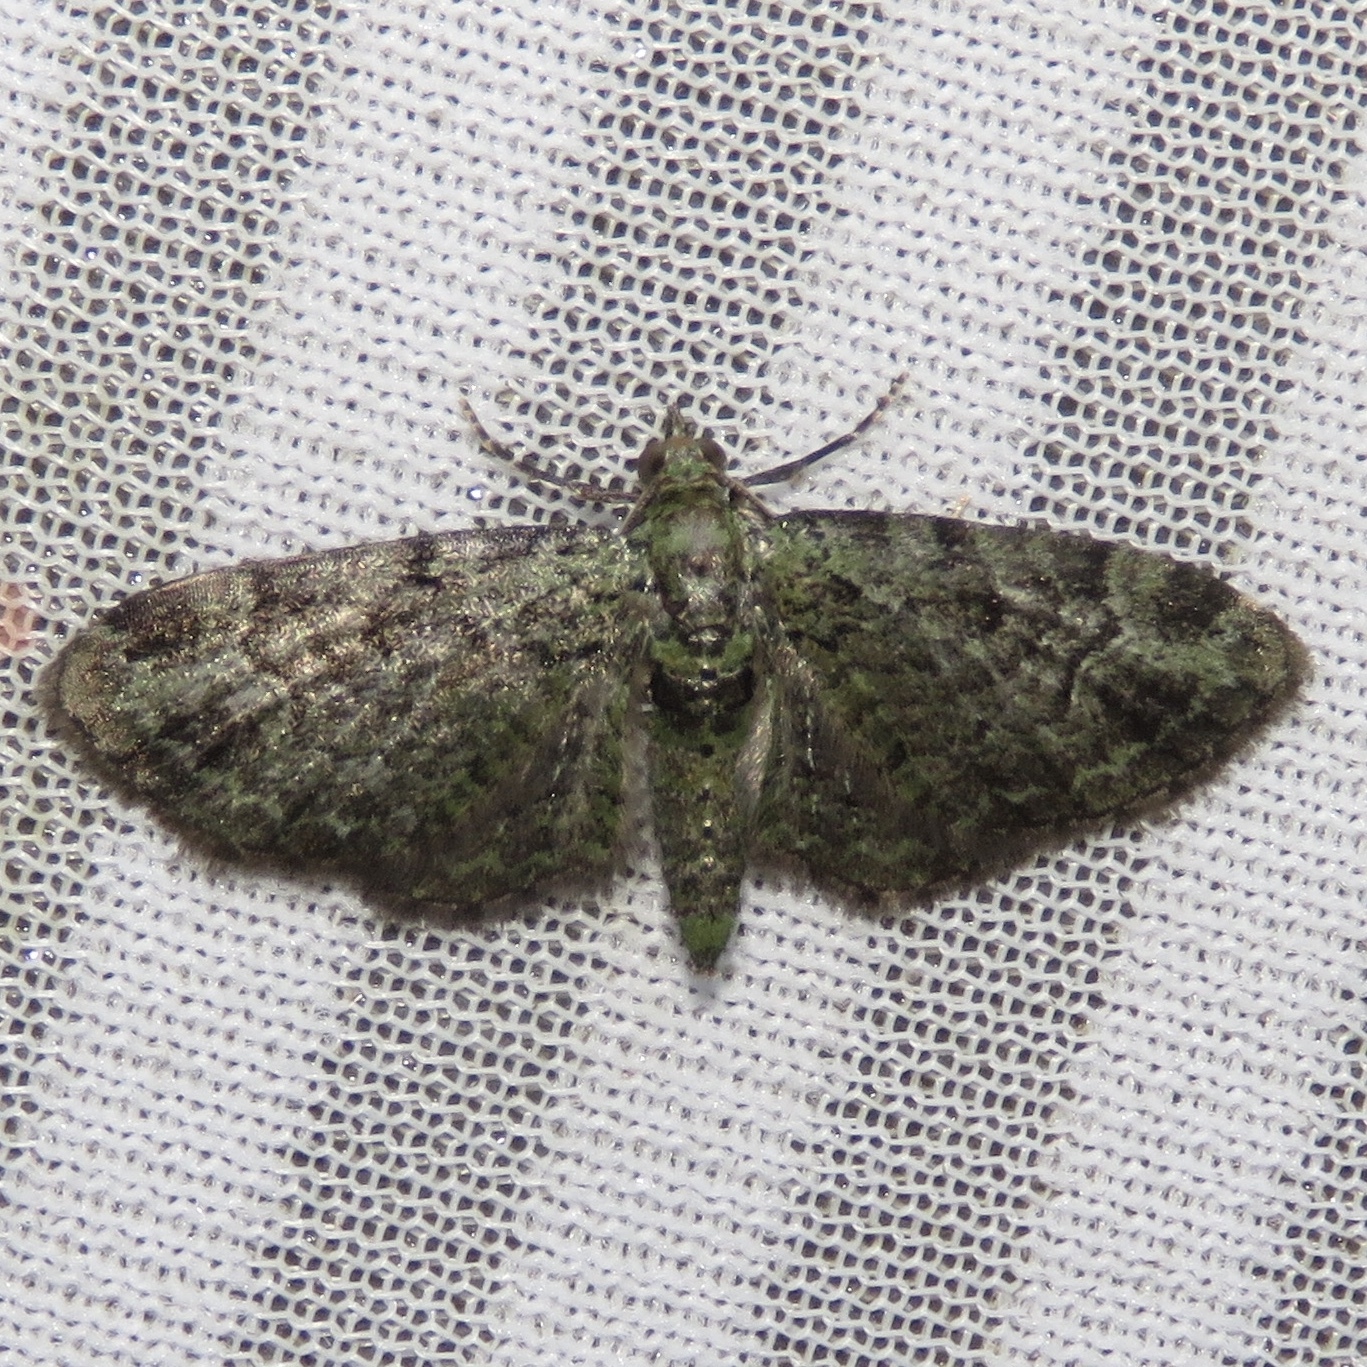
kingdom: Animalia
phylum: Arthropoda
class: Insecta
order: Lepidoptera
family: Geometridae
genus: Pasiphila
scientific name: Pasiphila rectangulata
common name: Green pug
